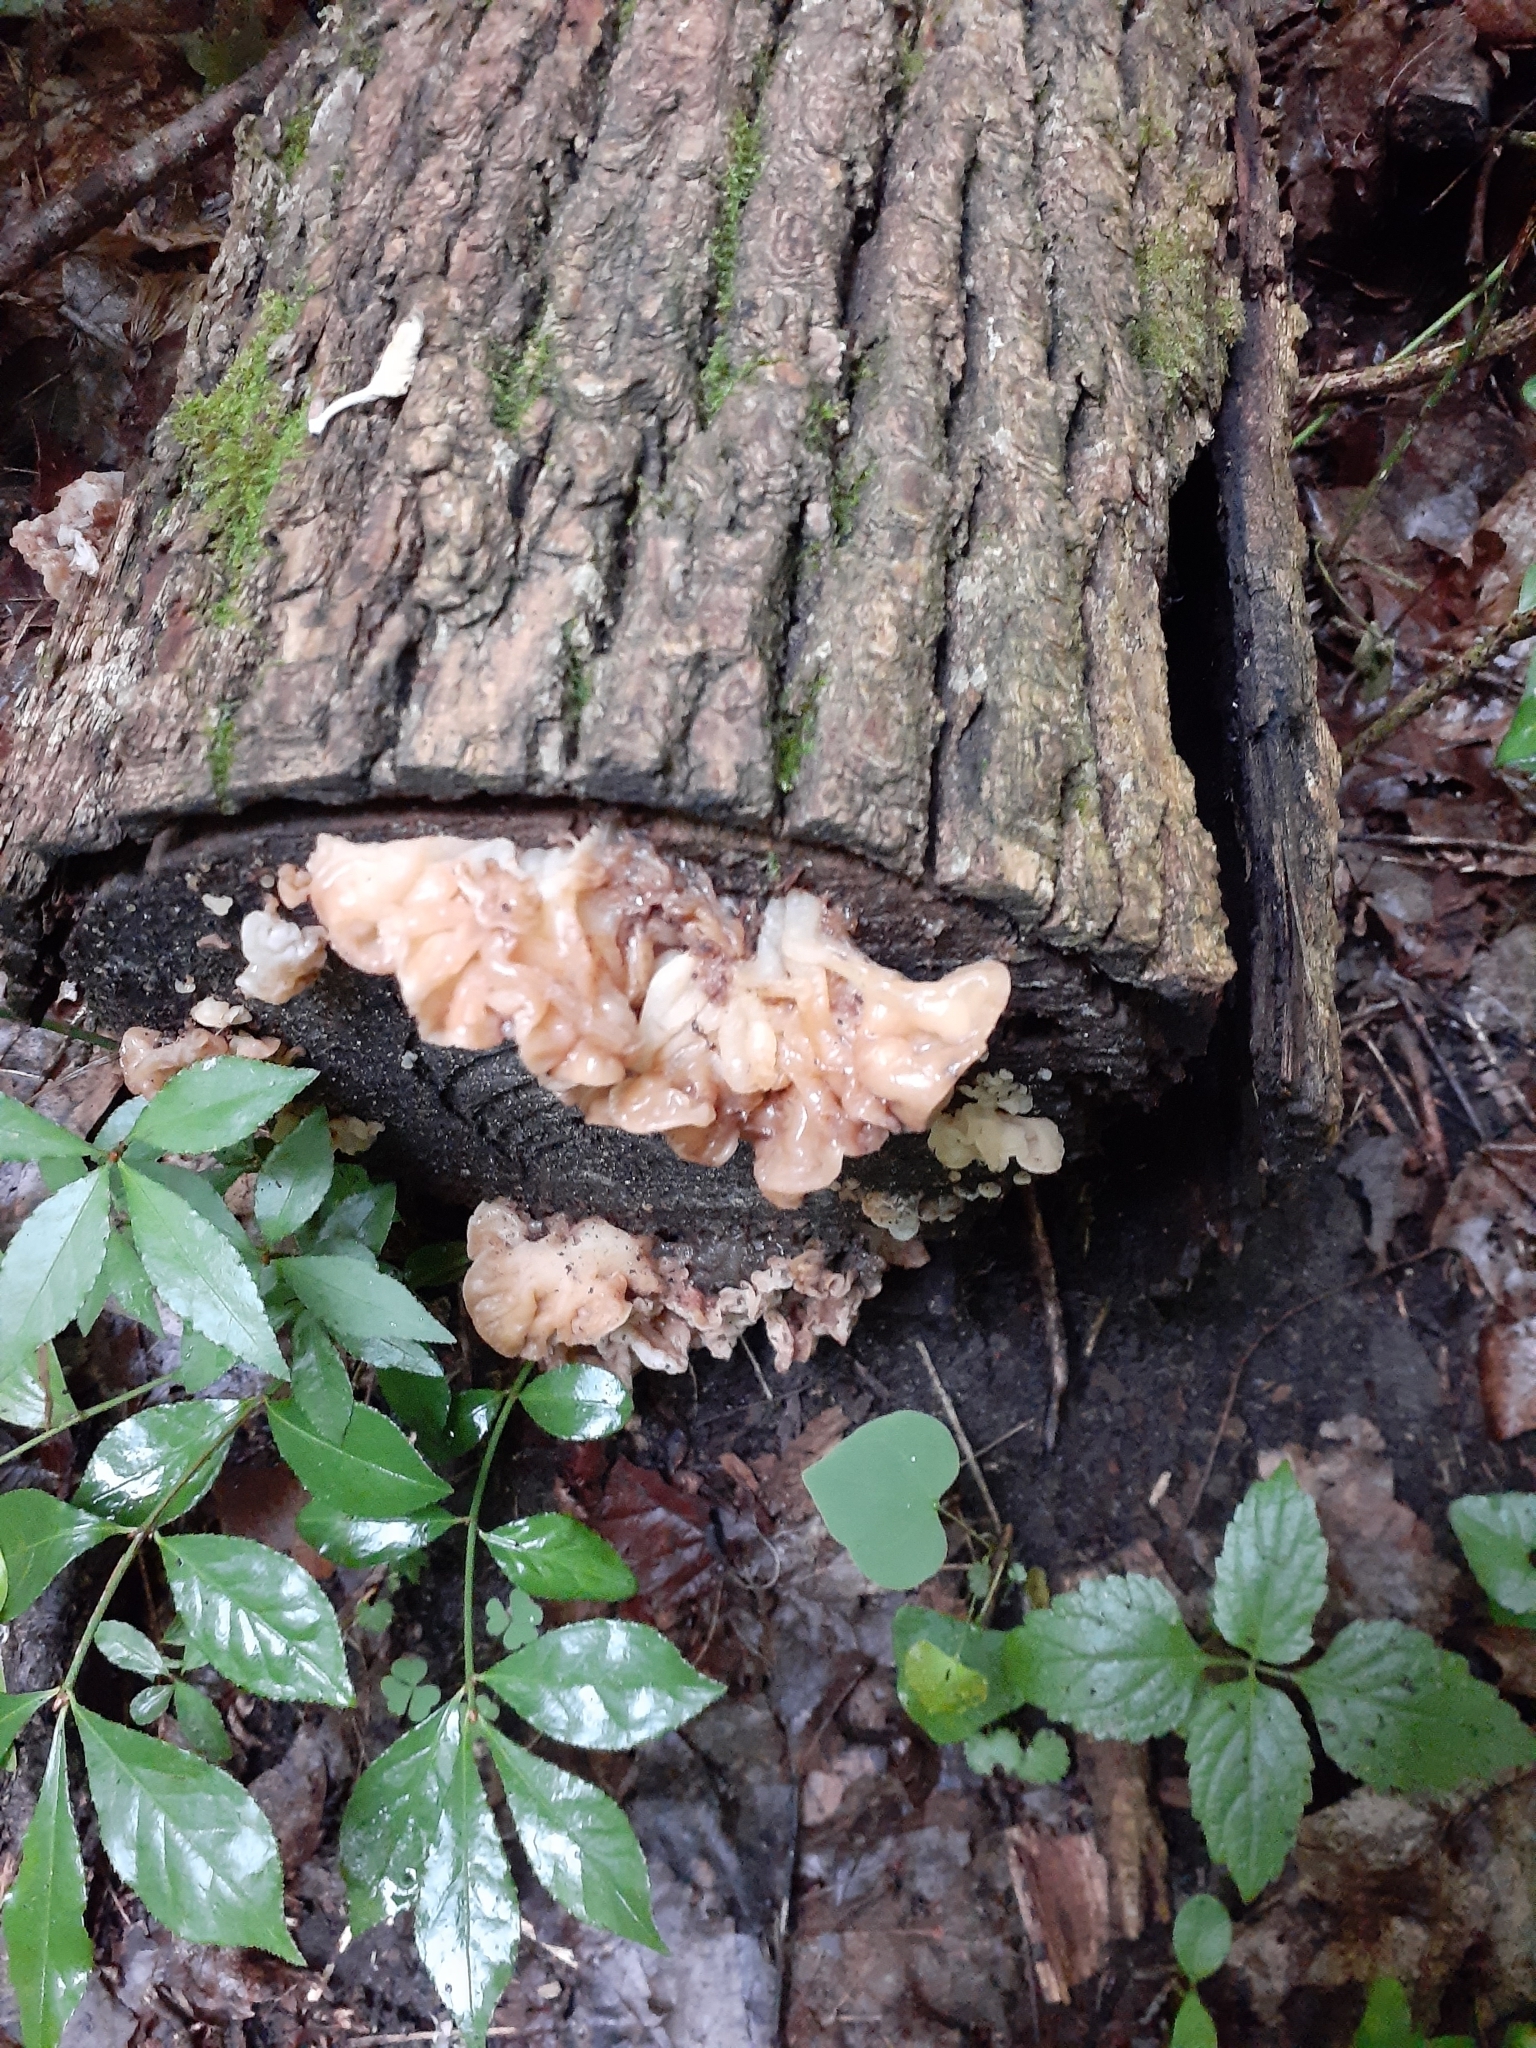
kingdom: Fungi
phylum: Basidiomycota
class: Agaricomycetes
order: Auriculariales
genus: Ductifera
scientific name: Ductifera pululahuana
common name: White jelly fungus
